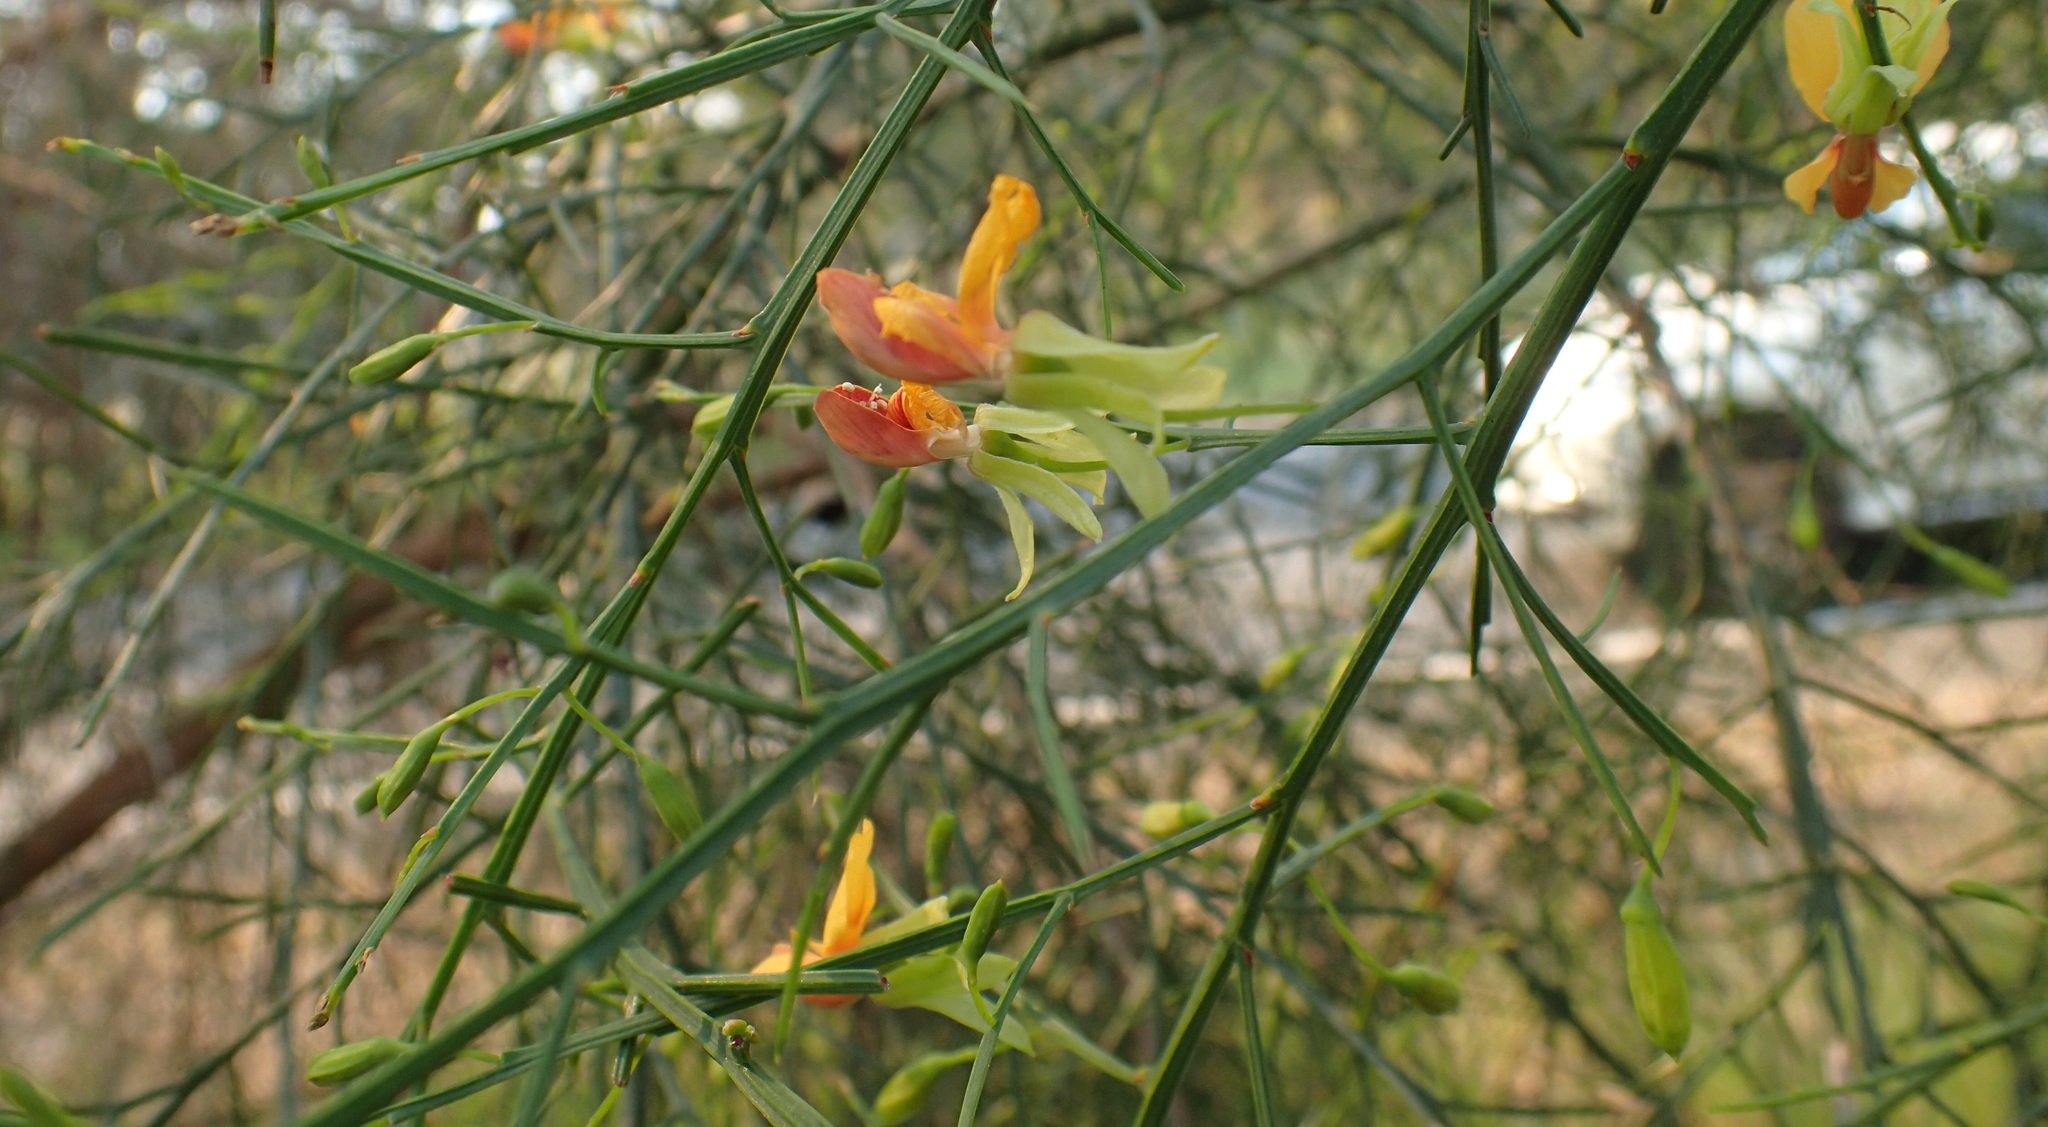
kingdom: Plantae
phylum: Tracheophyta
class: Magnoliopsida
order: Fabales
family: Fabaceae
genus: Jacksonia
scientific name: Jacksonia sternbergiana
